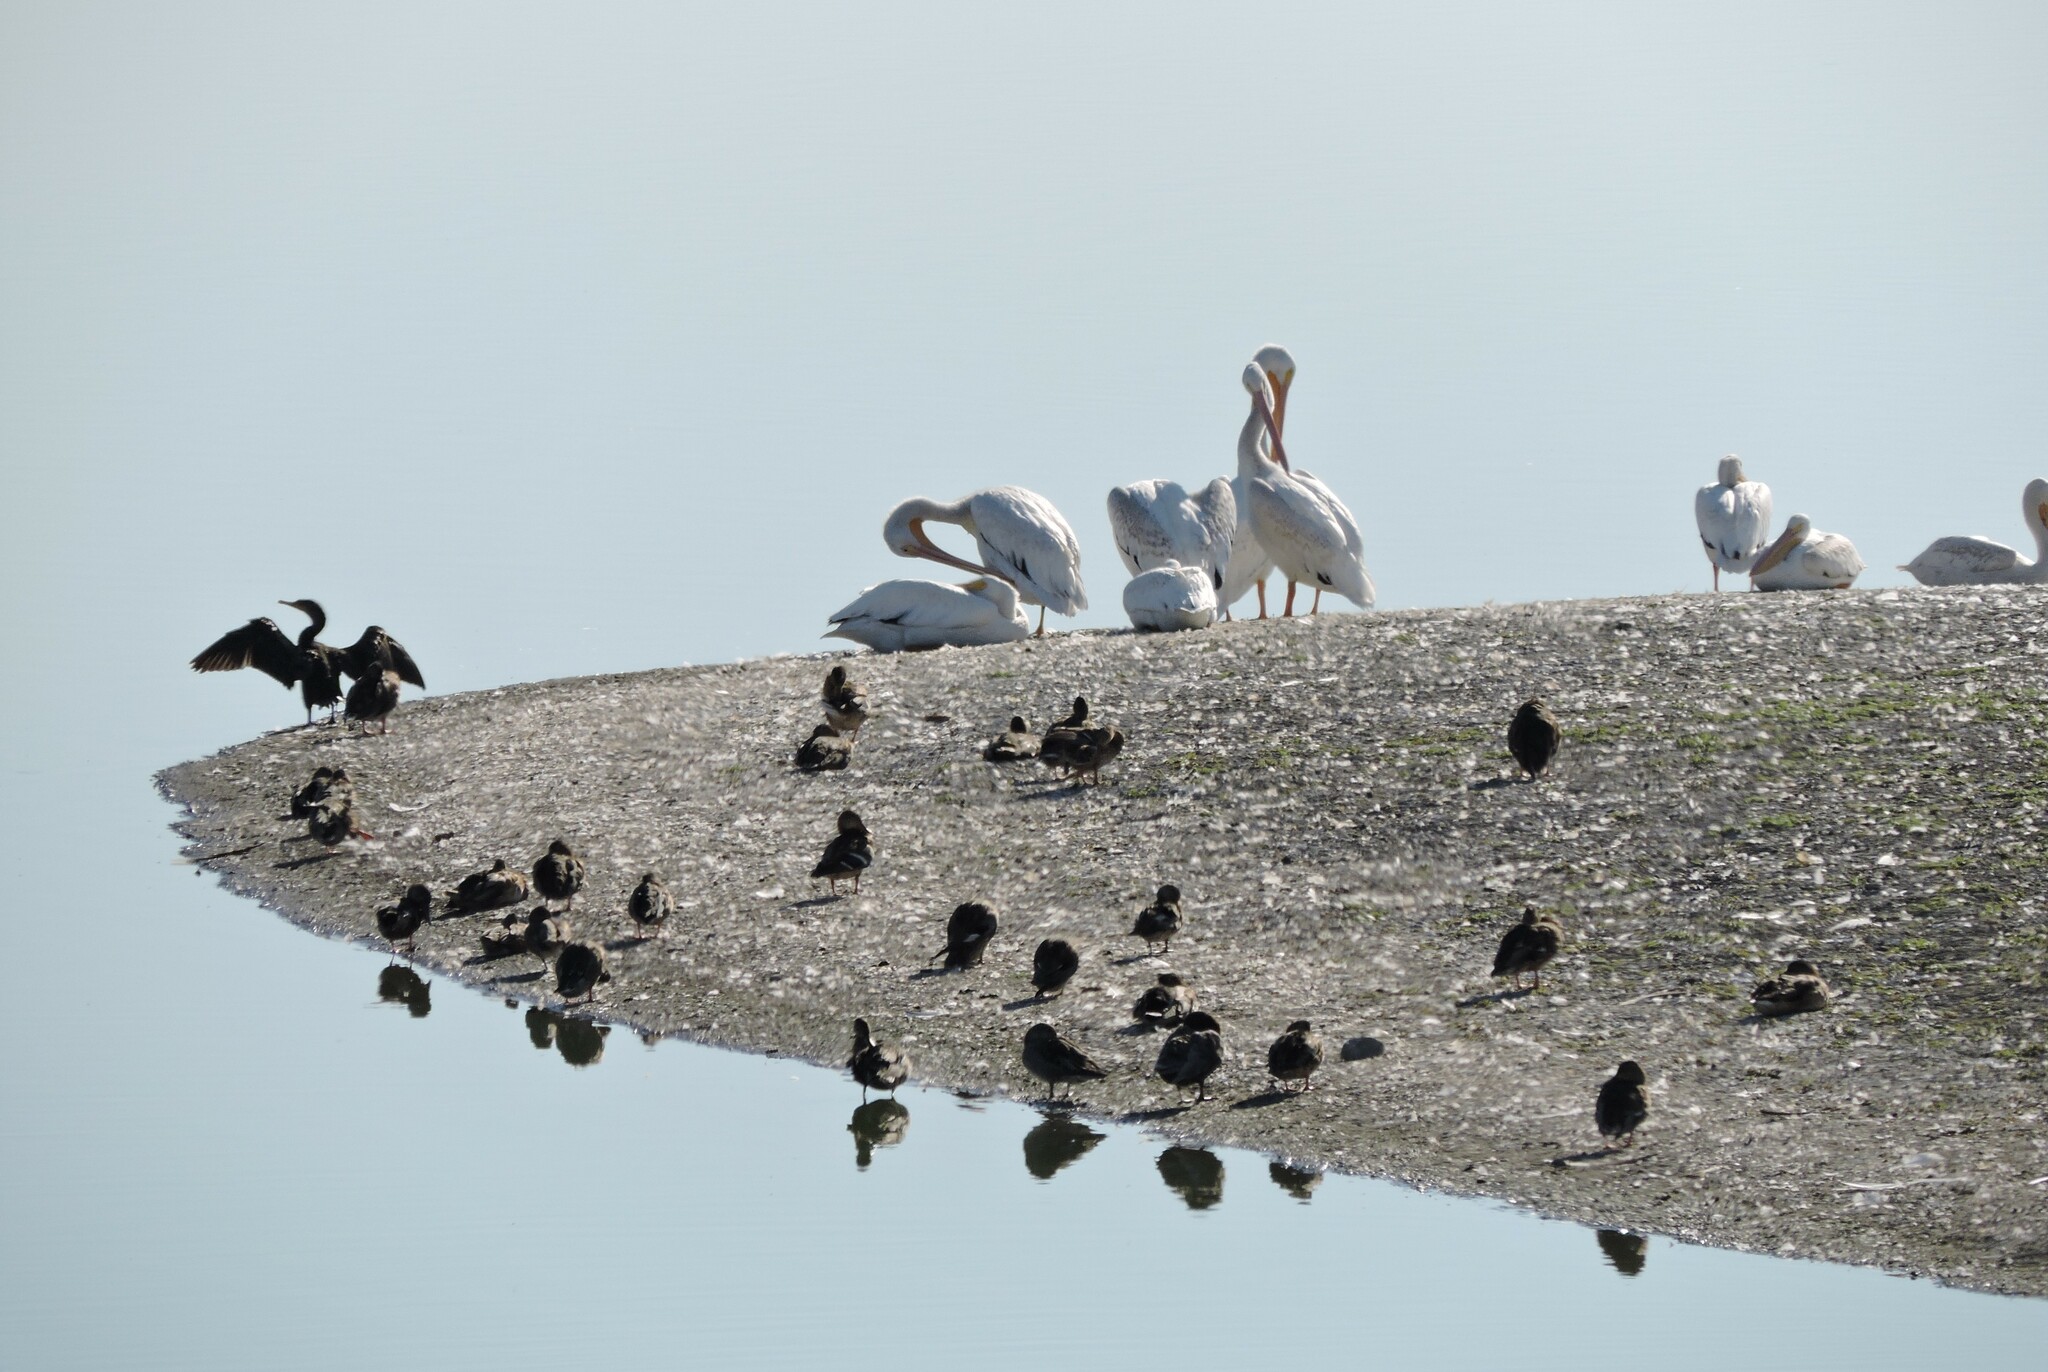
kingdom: Animalia
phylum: Chordata
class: Aves
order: Suliformes
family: Phalacrocoracidae
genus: Phalacrocorax
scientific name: Phalacrocorax auritus
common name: Double-crested cormorant
